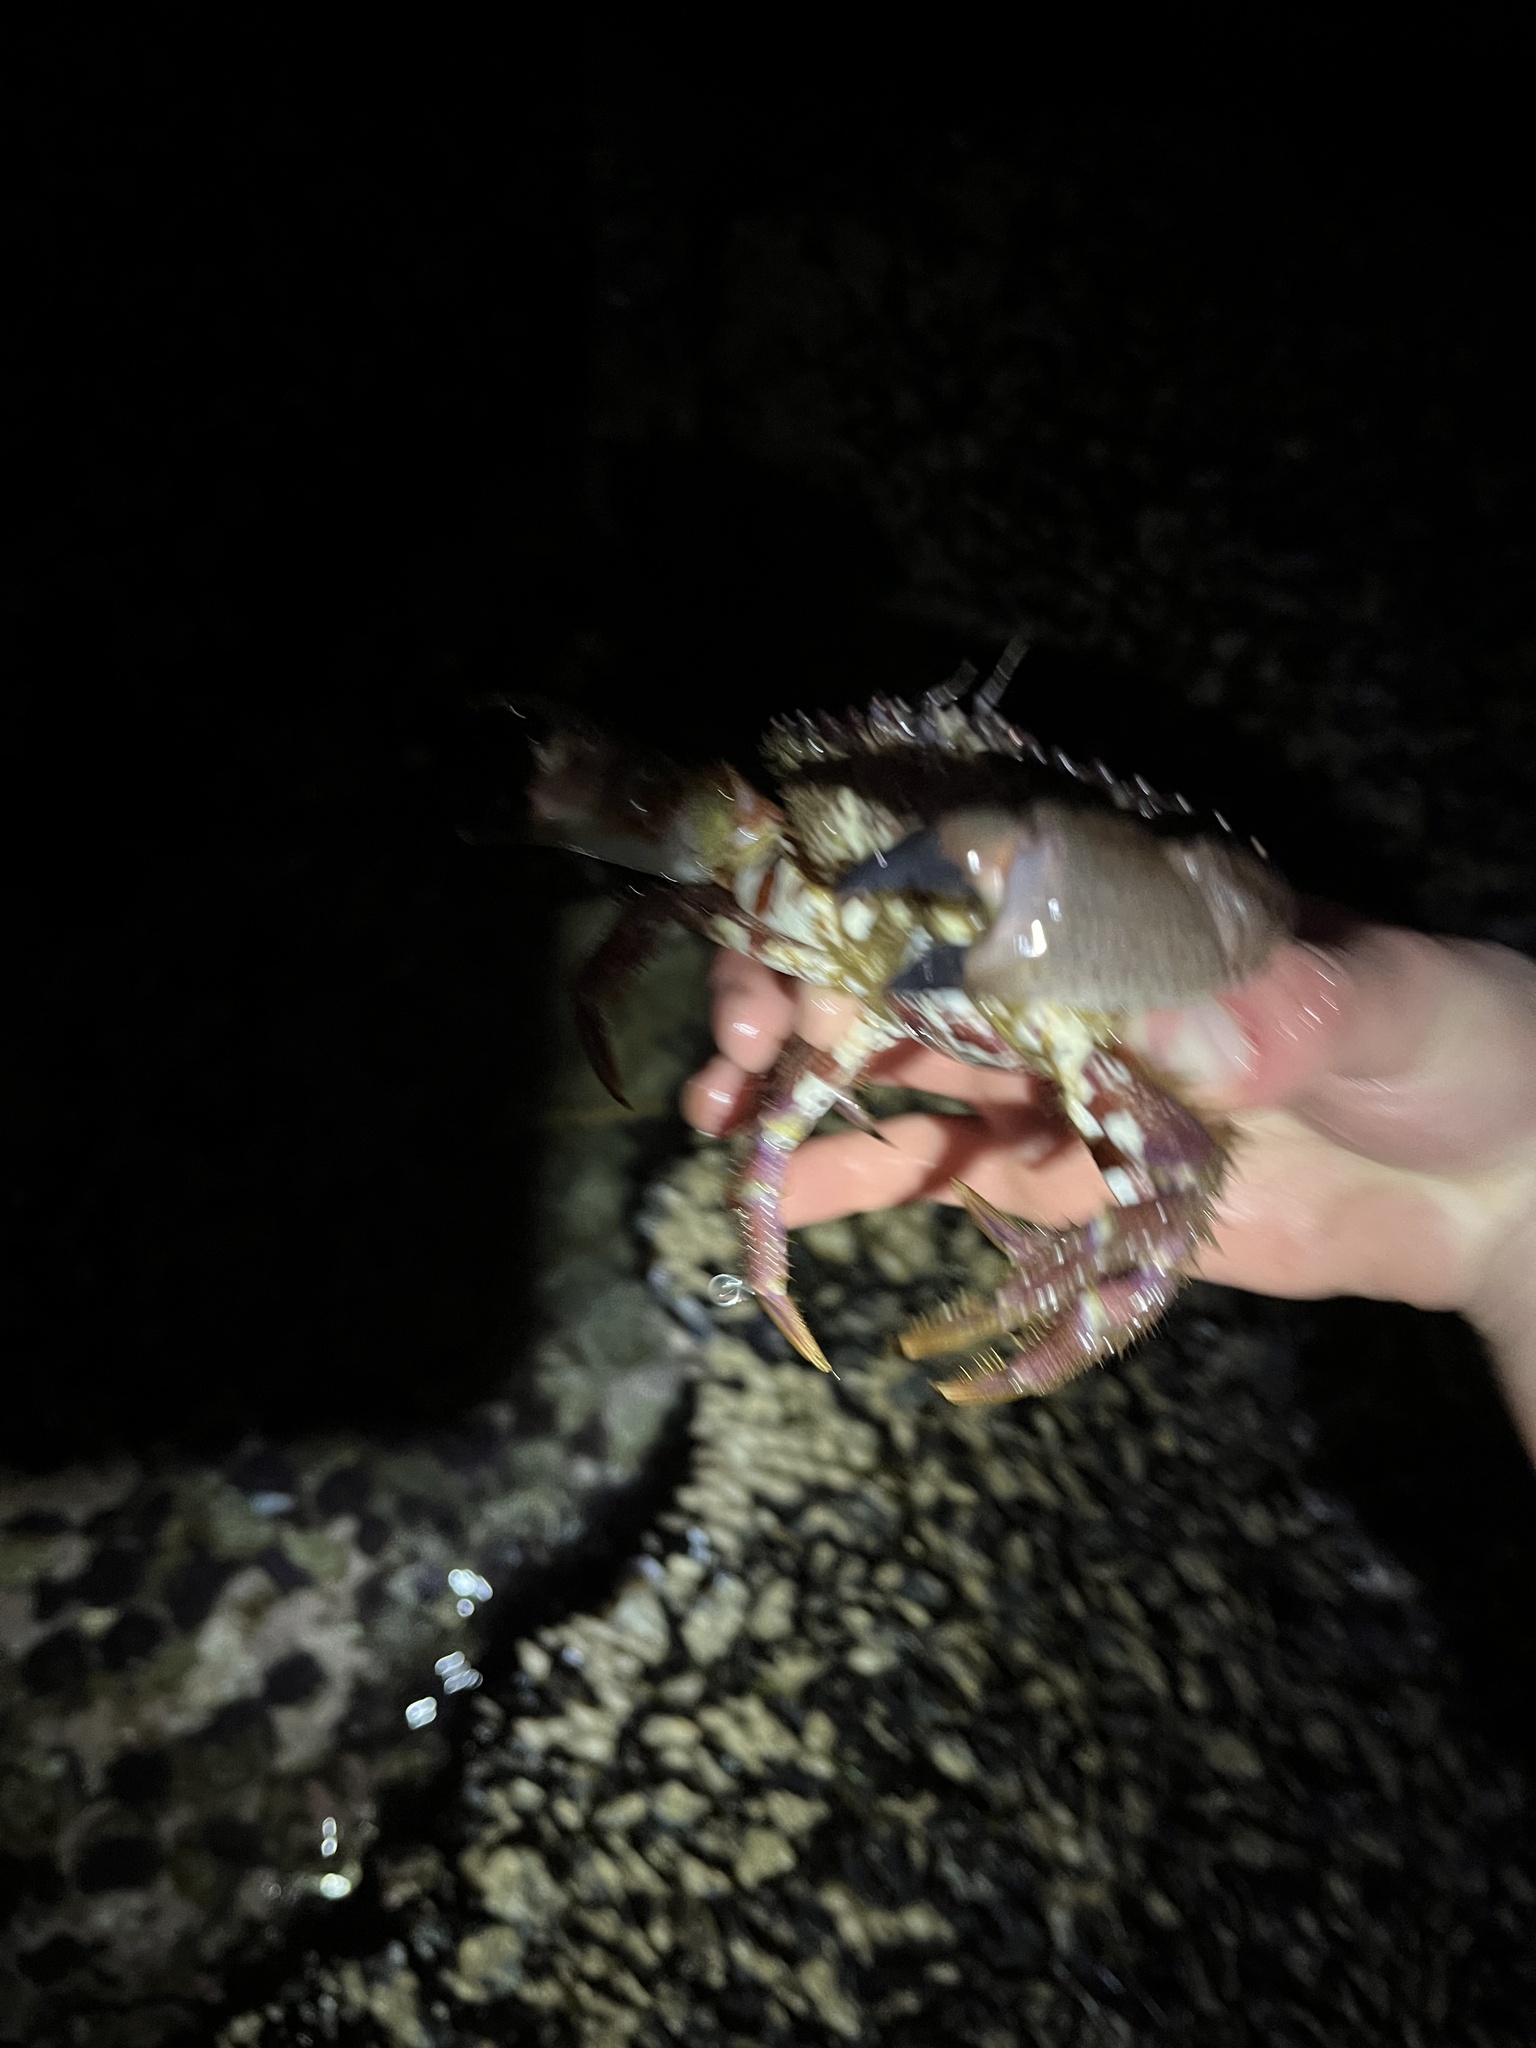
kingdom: Animalia
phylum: Arthropoda
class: Malacostraca
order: Decapoda
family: Cancridae
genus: Romaleon
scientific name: Romaleon antennarium
